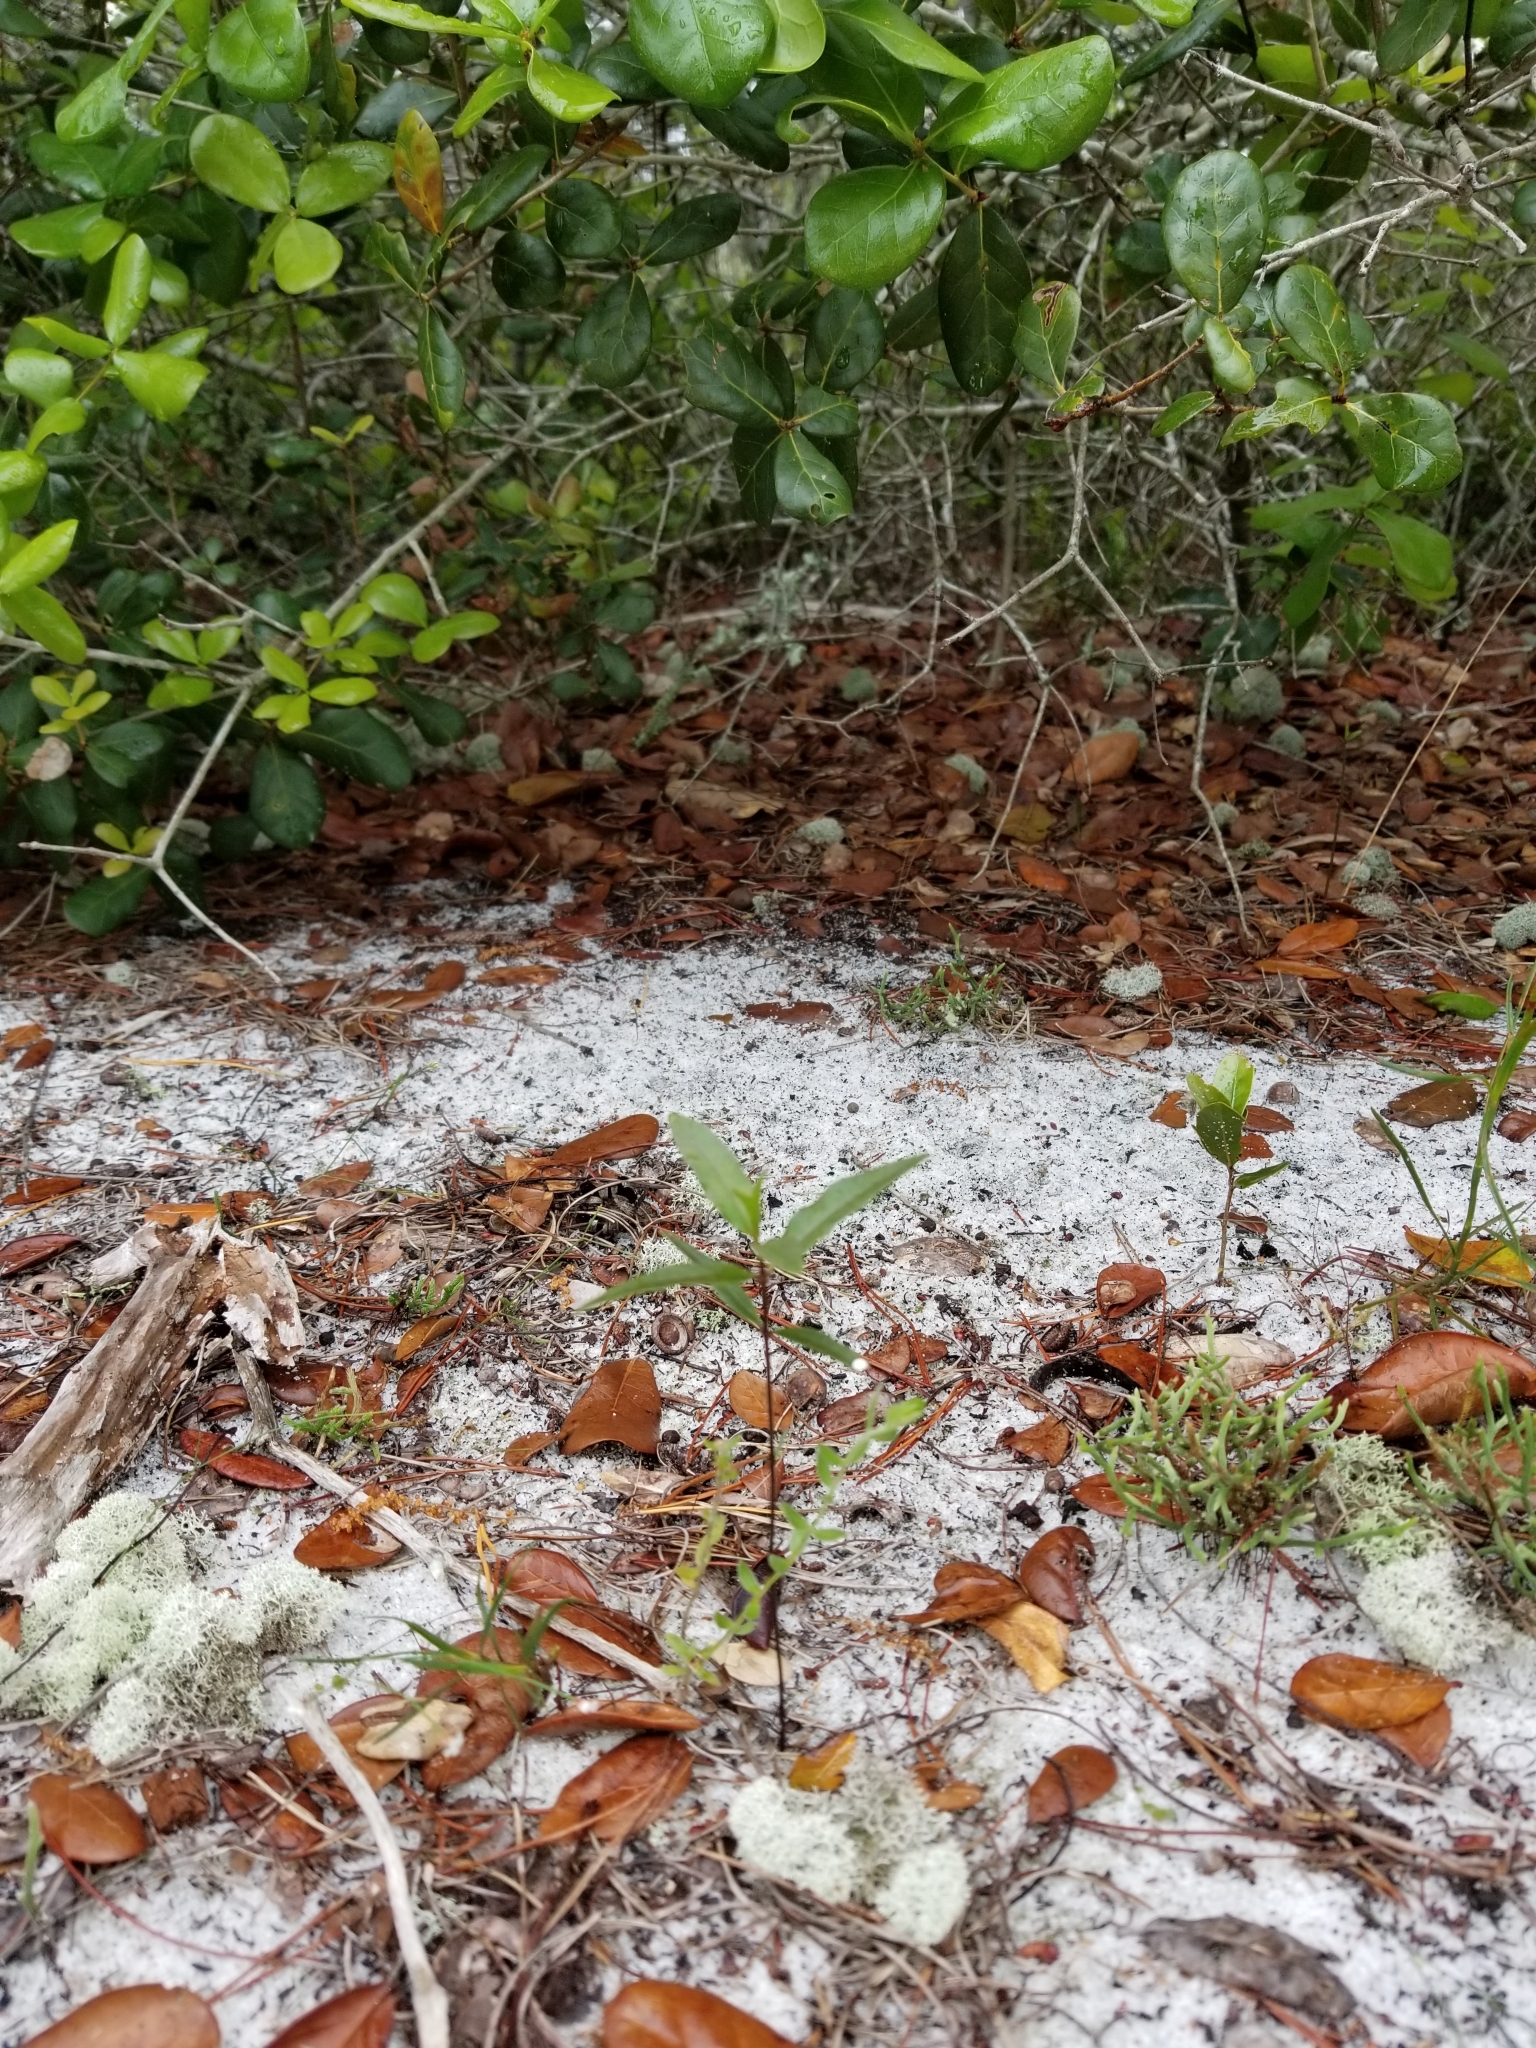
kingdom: Plantae
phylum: Tracheophyta
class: Magnoliopsida
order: Gentianales
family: Apocynaceae
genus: Asclepias
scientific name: Asclepias curtissii
